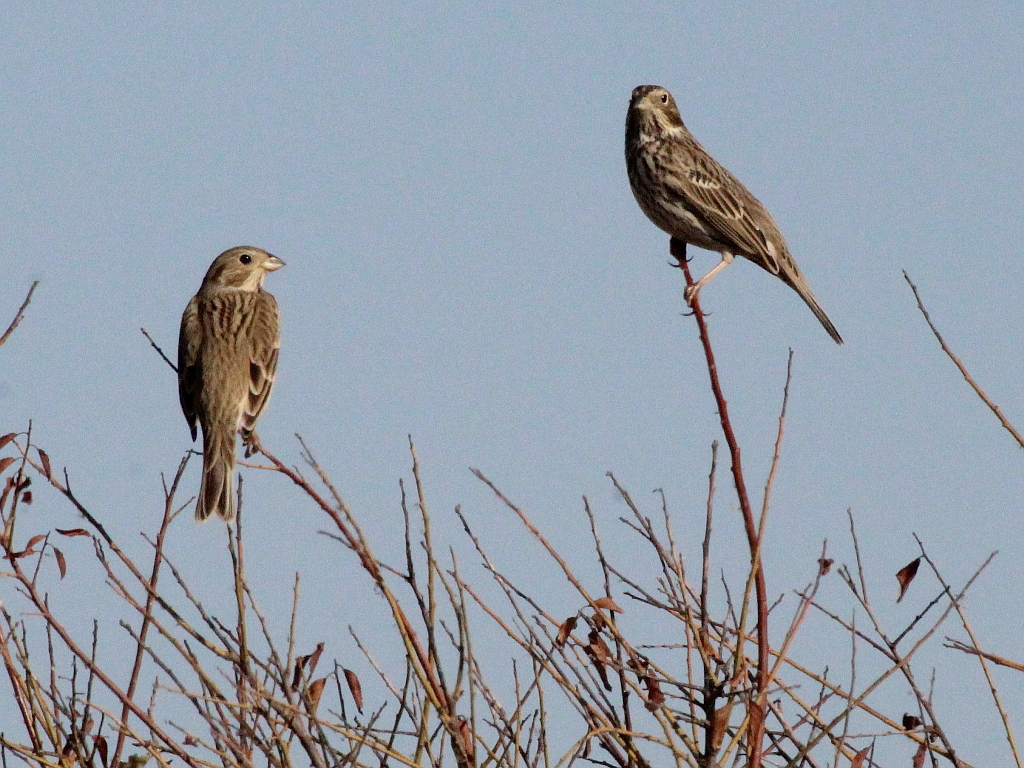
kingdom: Animalia
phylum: Chordata
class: Aves
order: Passeriformes
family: Emberizidae
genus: Emberiza
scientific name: Emberiza calandra
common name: Corn bunting
